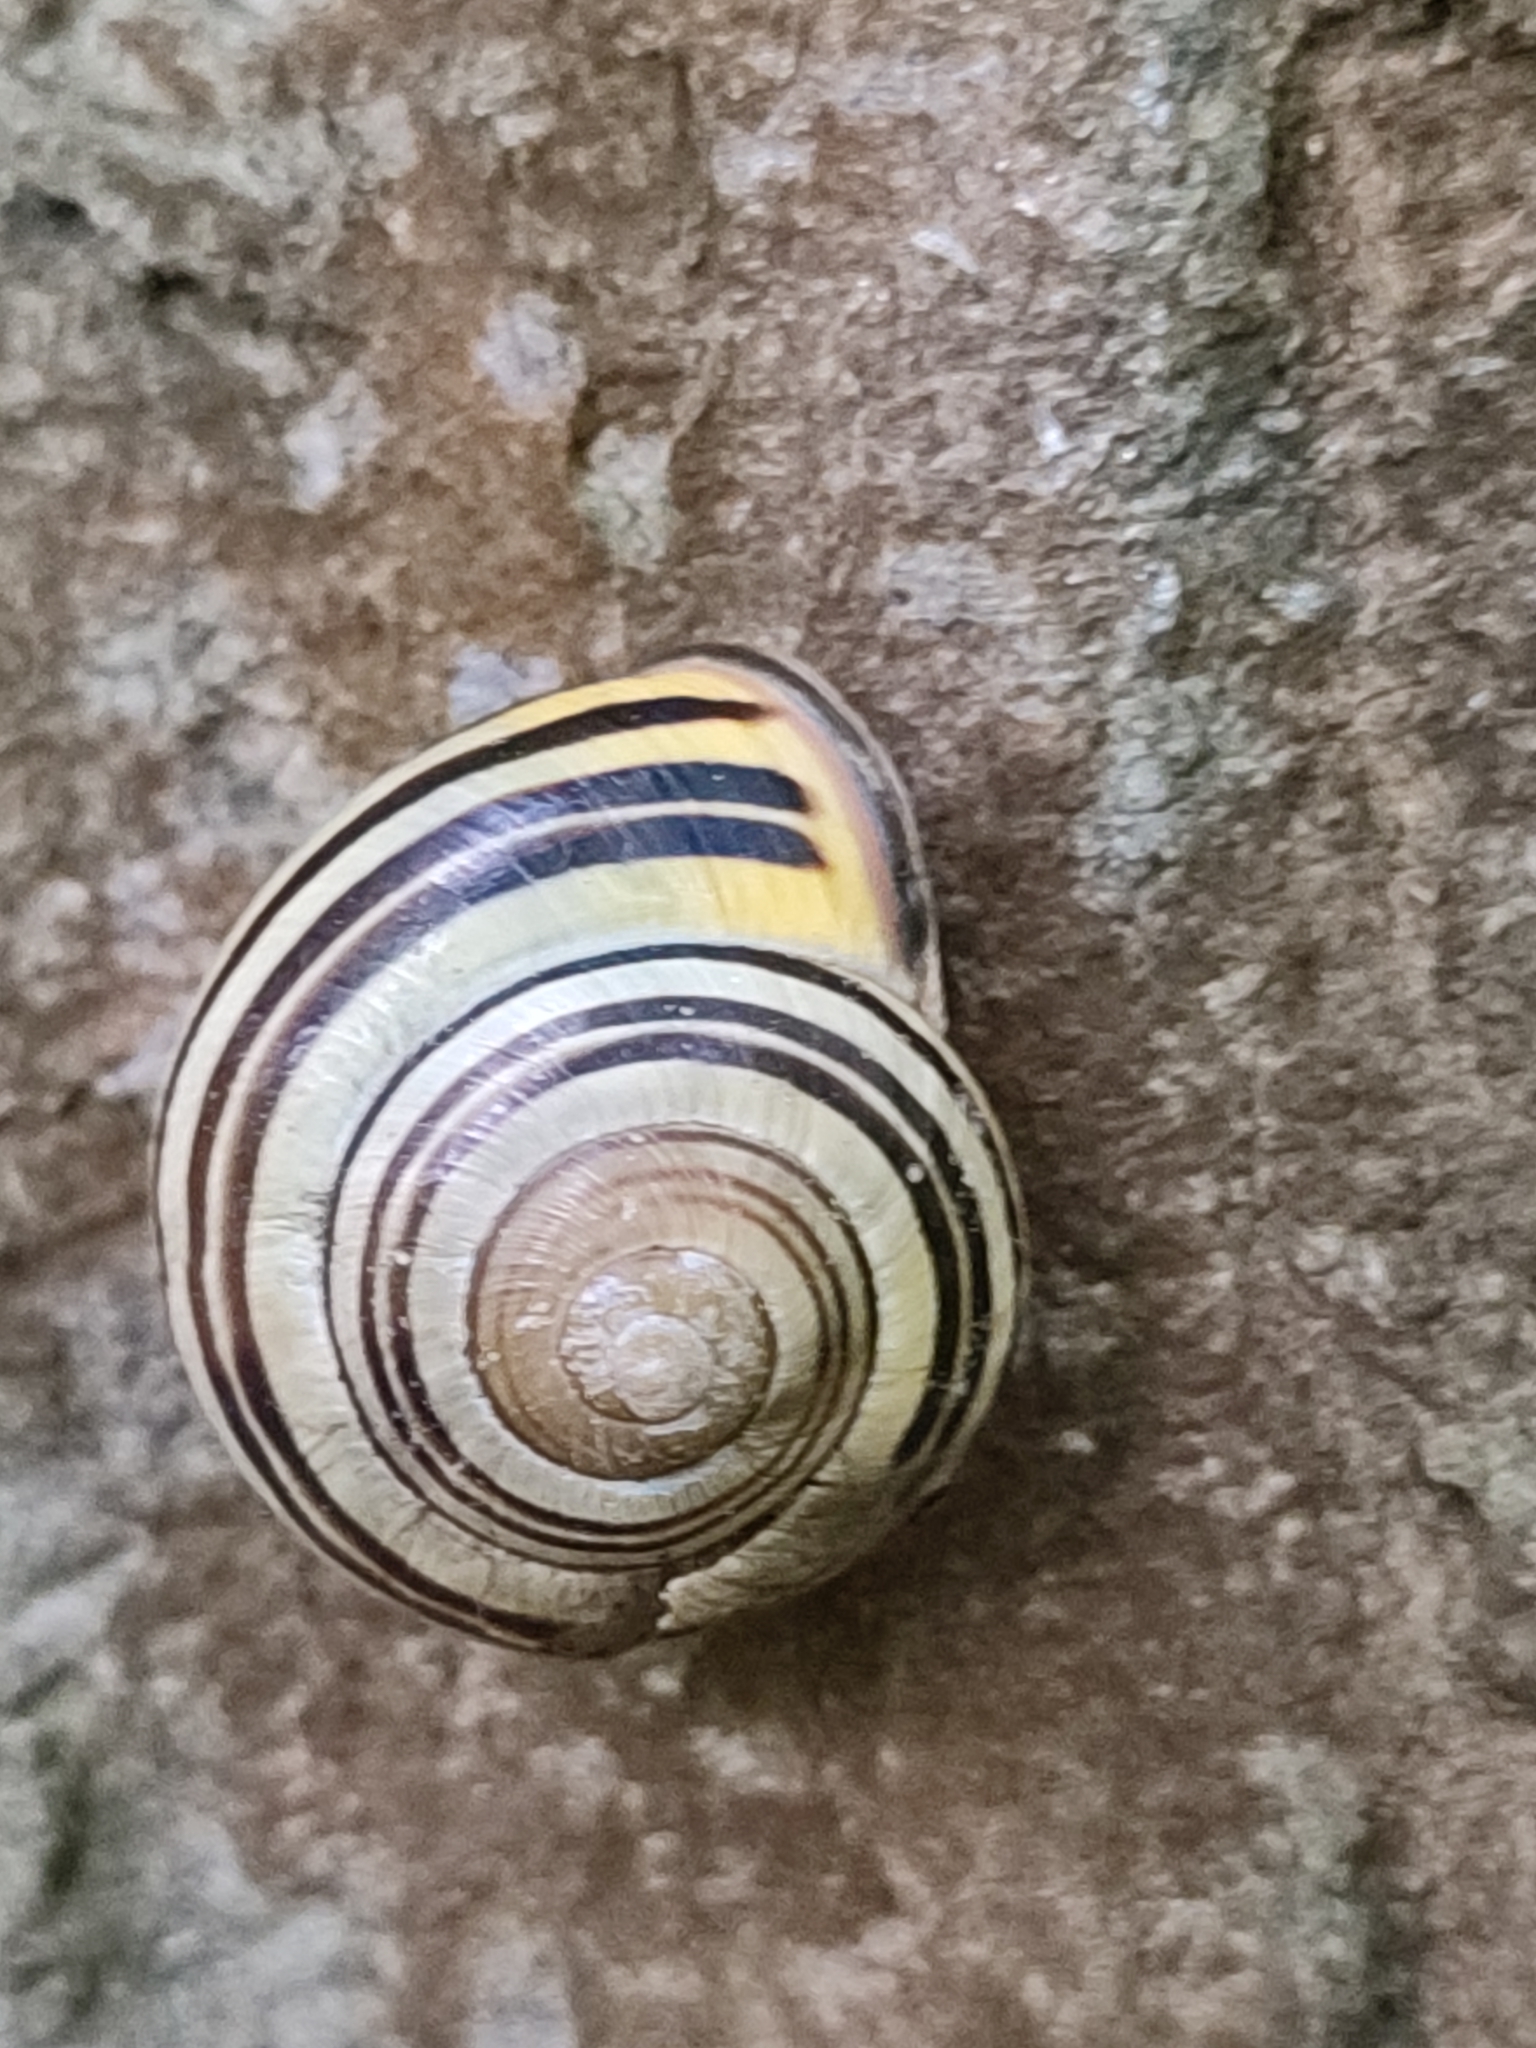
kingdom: Animalia
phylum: Mollusca
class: Gastropoda
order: Stylommatophora
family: Helicidae
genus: Cepaea
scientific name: Cepaea nemoralis
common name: Grovesnail
